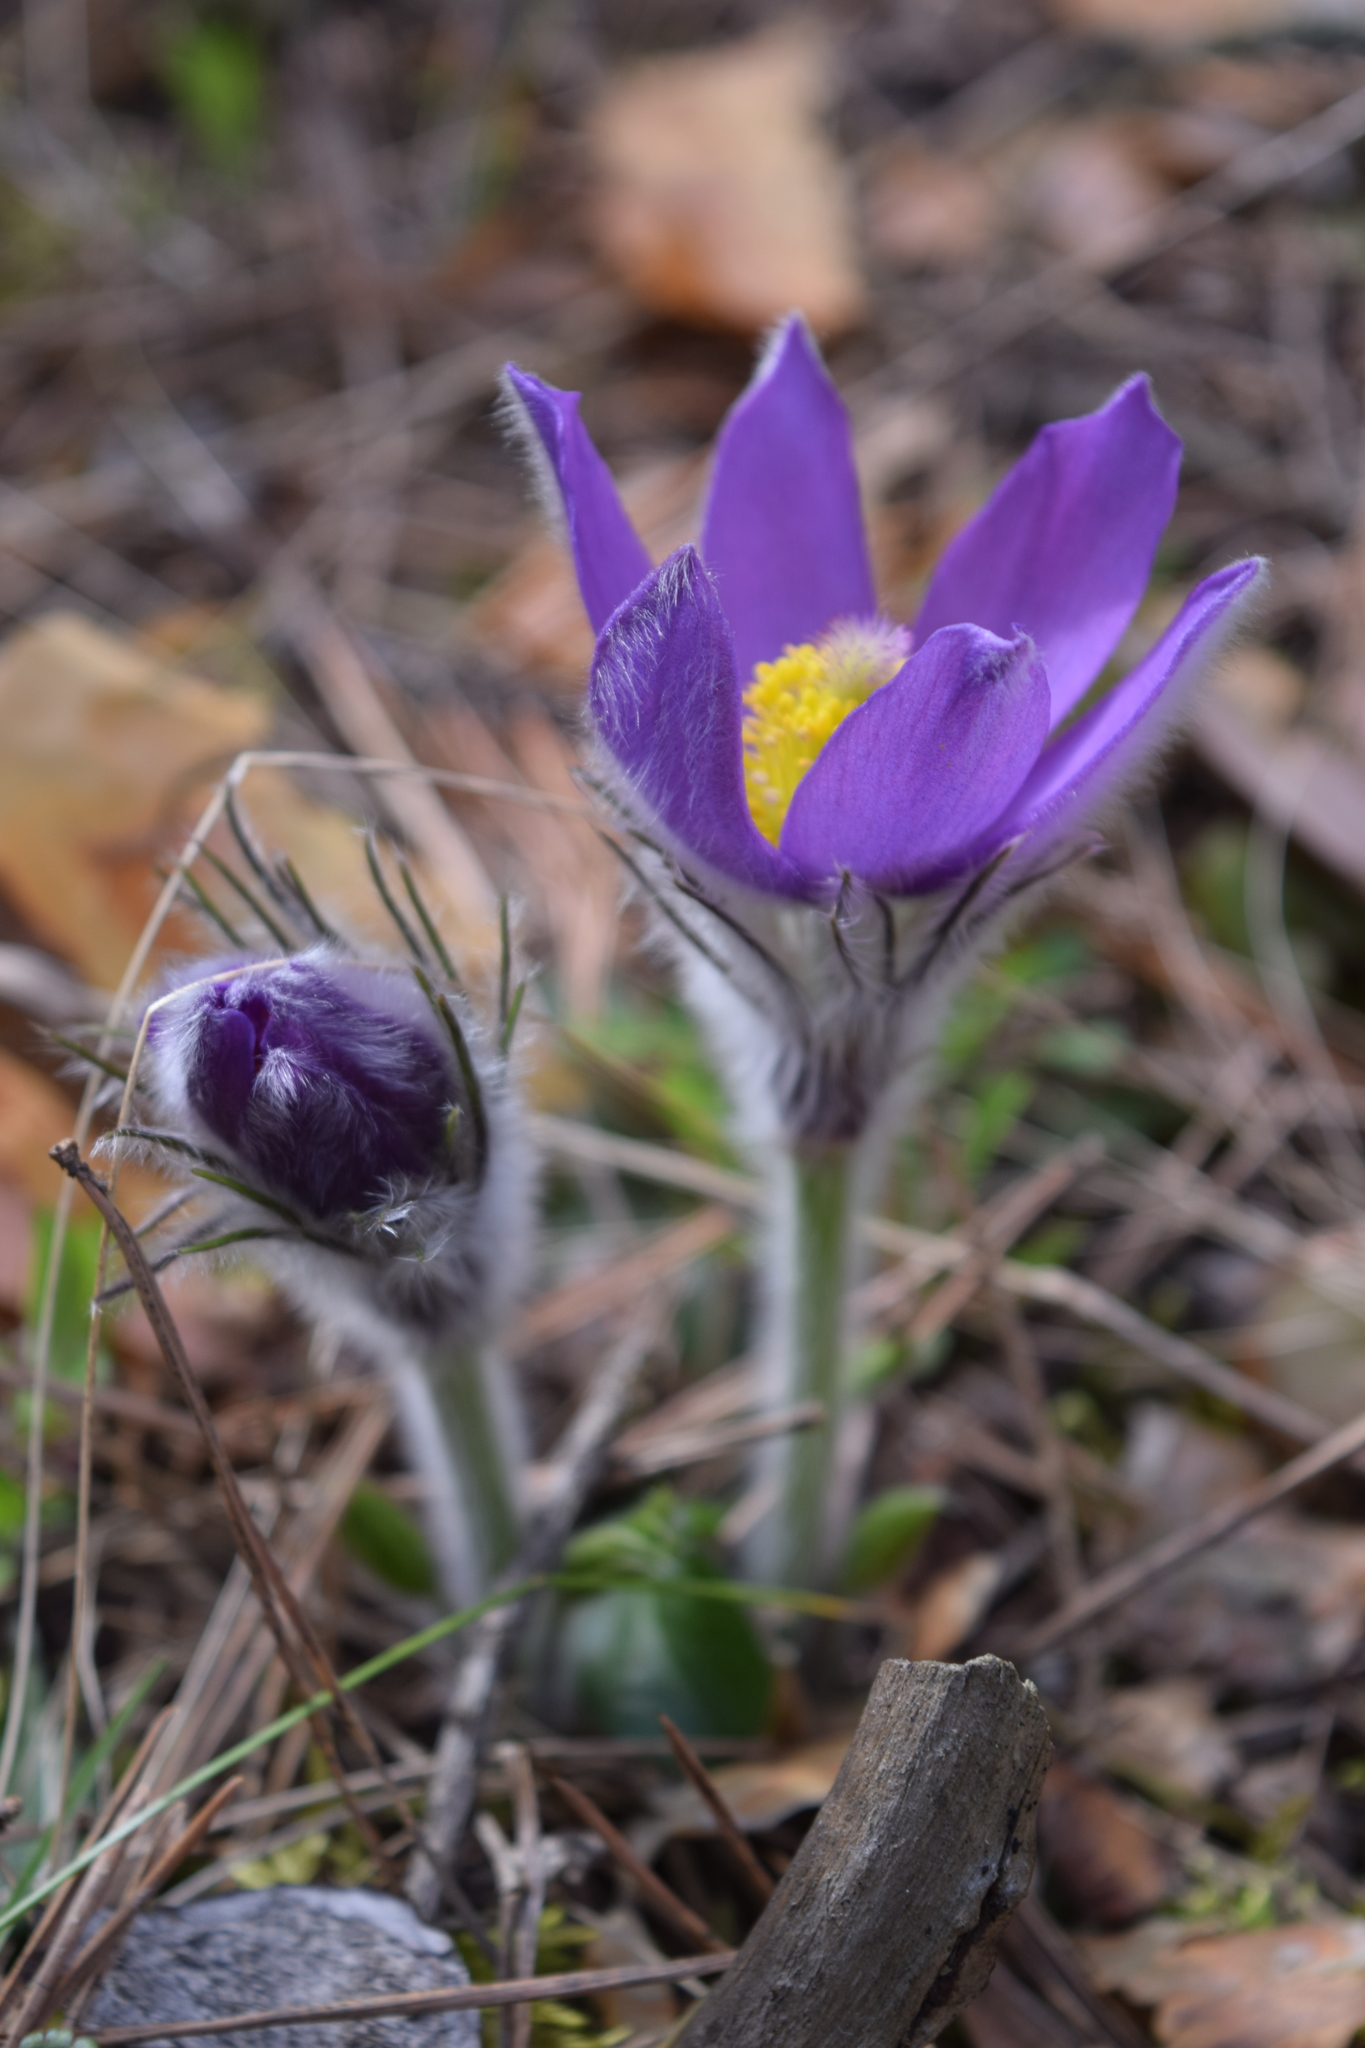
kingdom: Plantae
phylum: Tracheophyta
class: Magnoliopsida
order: Ranunculales
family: Ranunculaceae
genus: Pulsatilla
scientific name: Pulsatilla patens
